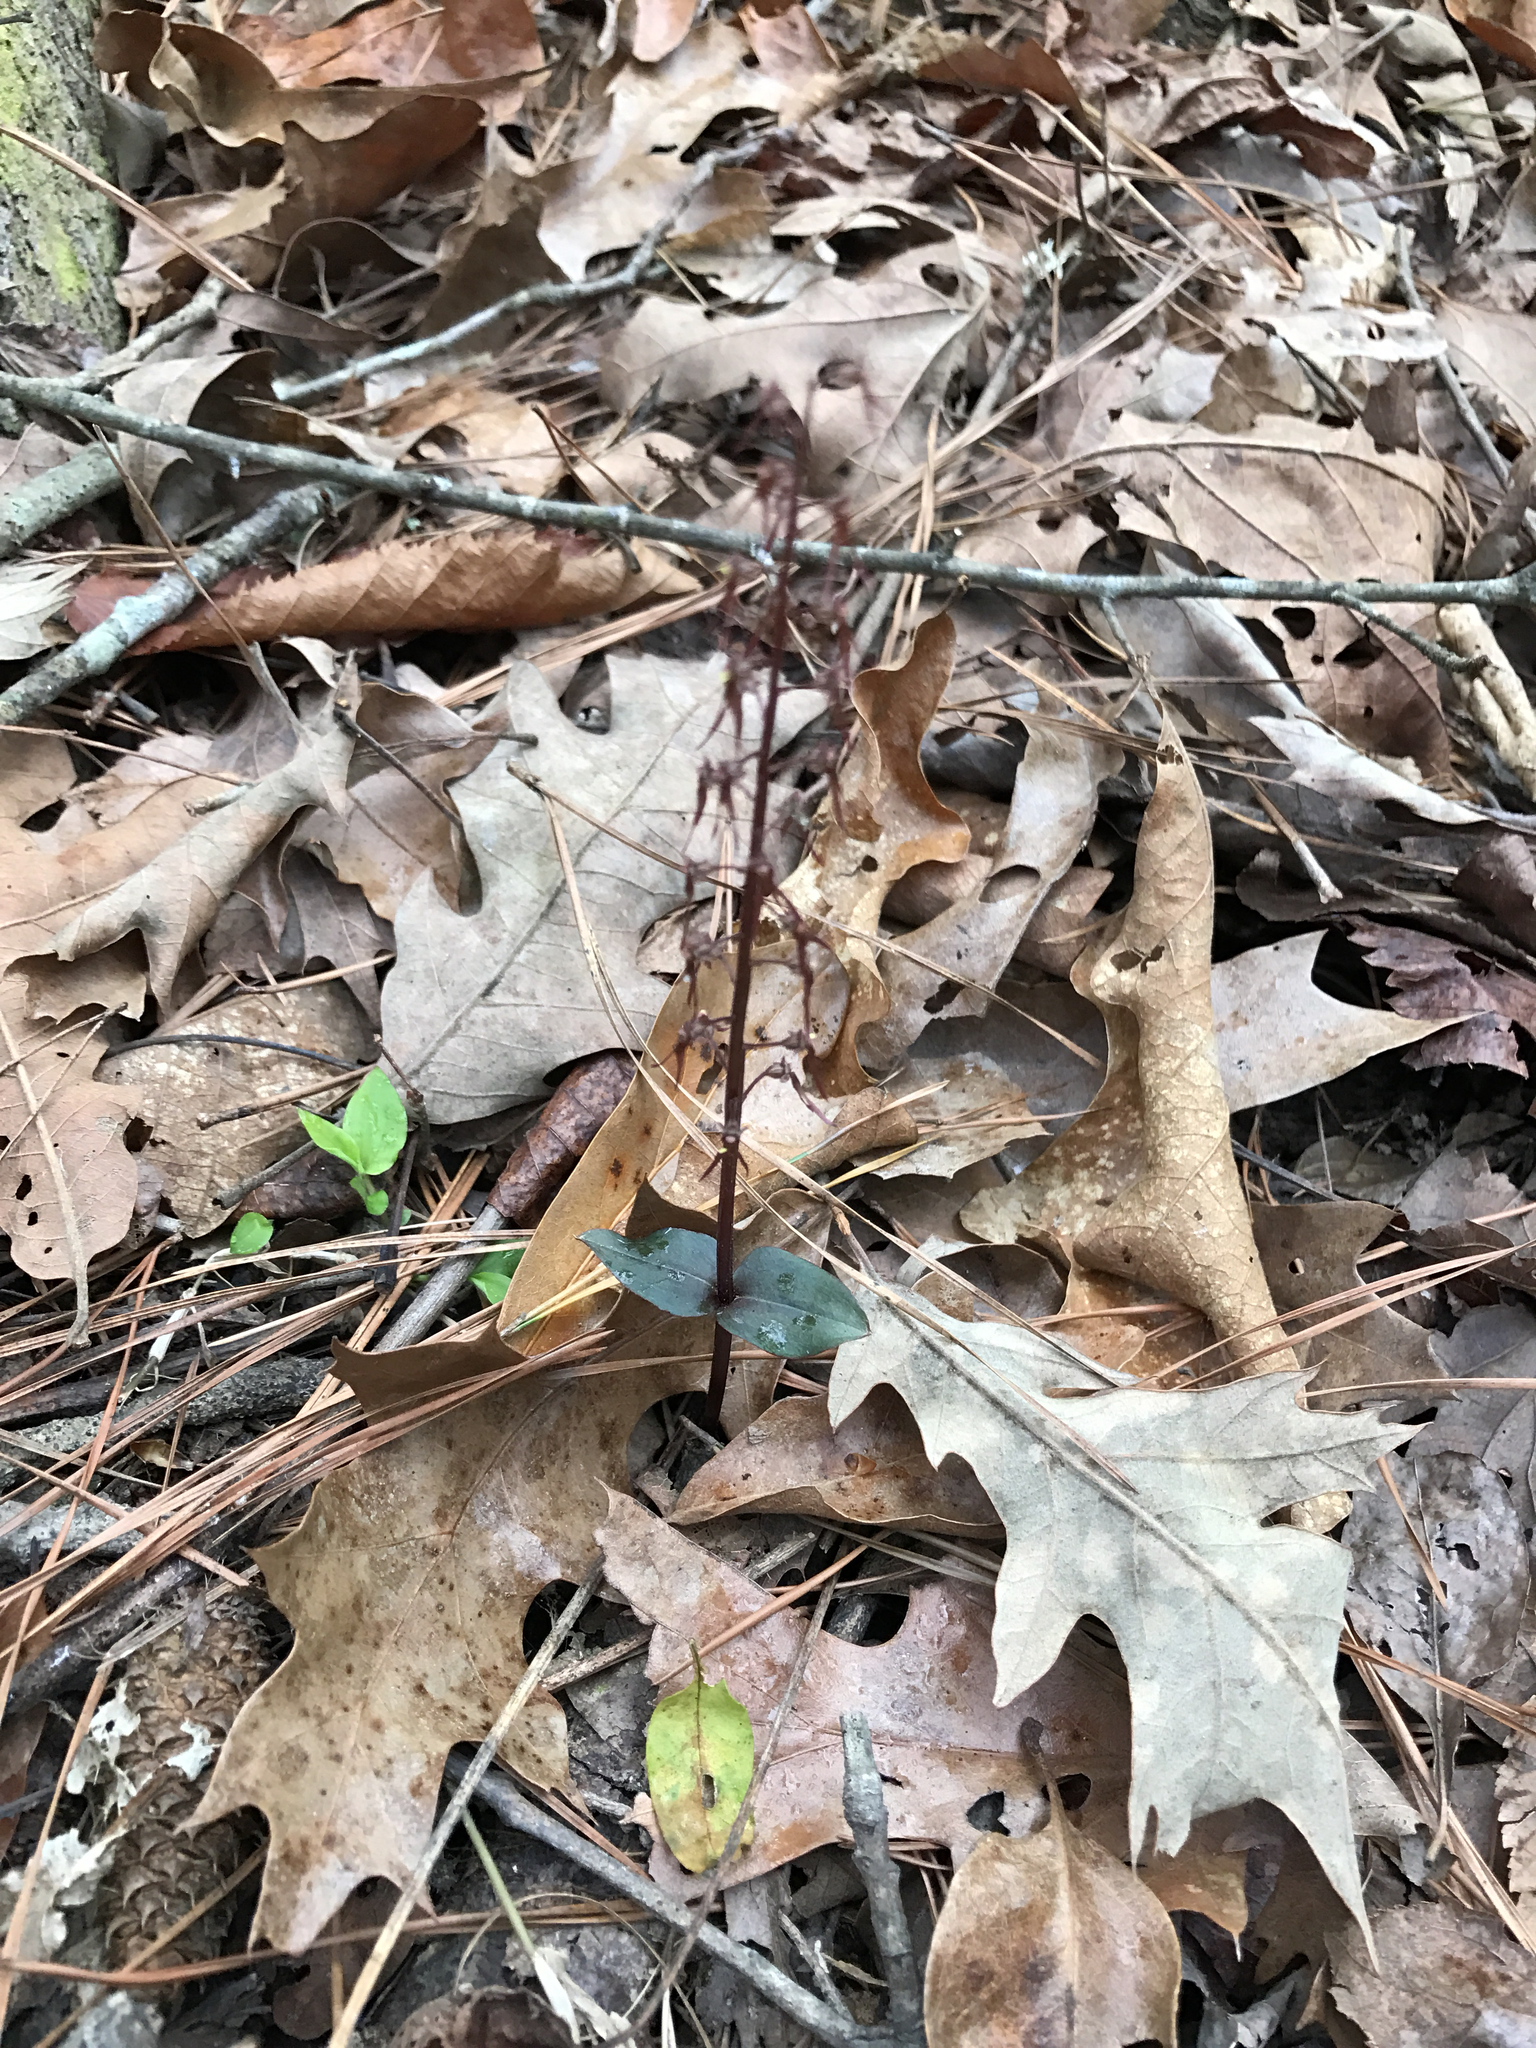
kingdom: Plantae
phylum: Tracheophyta
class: Liliopsida
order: Asparagales
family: Orchidaceae
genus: Neottia
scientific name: Neottia bifolia
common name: Southern twayblade
